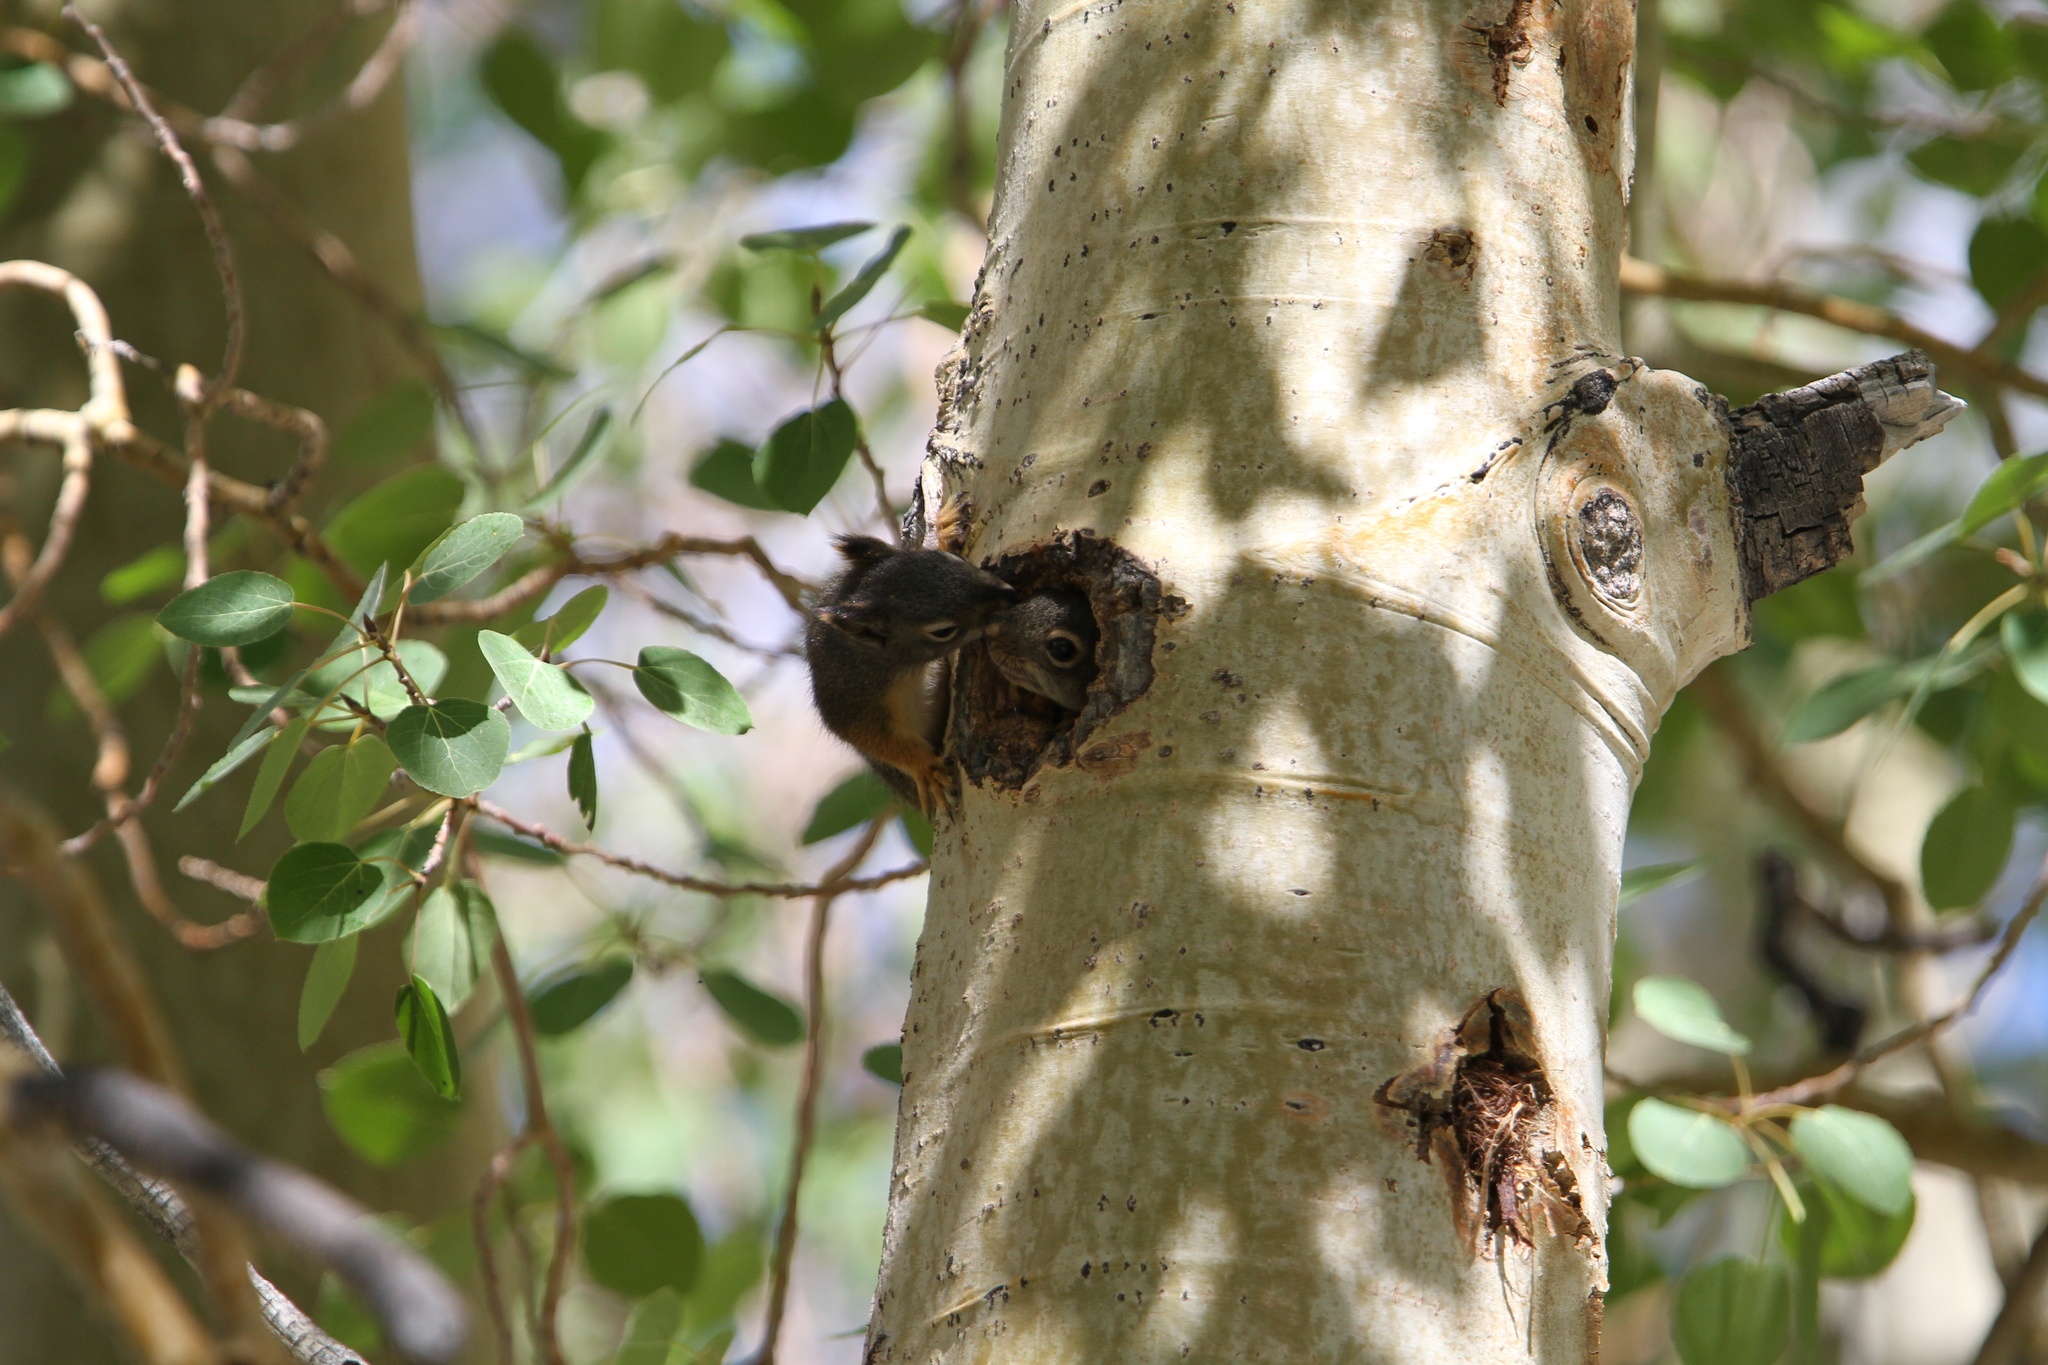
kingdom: Animalia
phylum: Chordata
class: Mammalia
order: Rodentia
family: Sciuridae
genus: Tamiasciurus
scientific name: Tamiasciurus douglasii
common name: Douglas's squirrel
